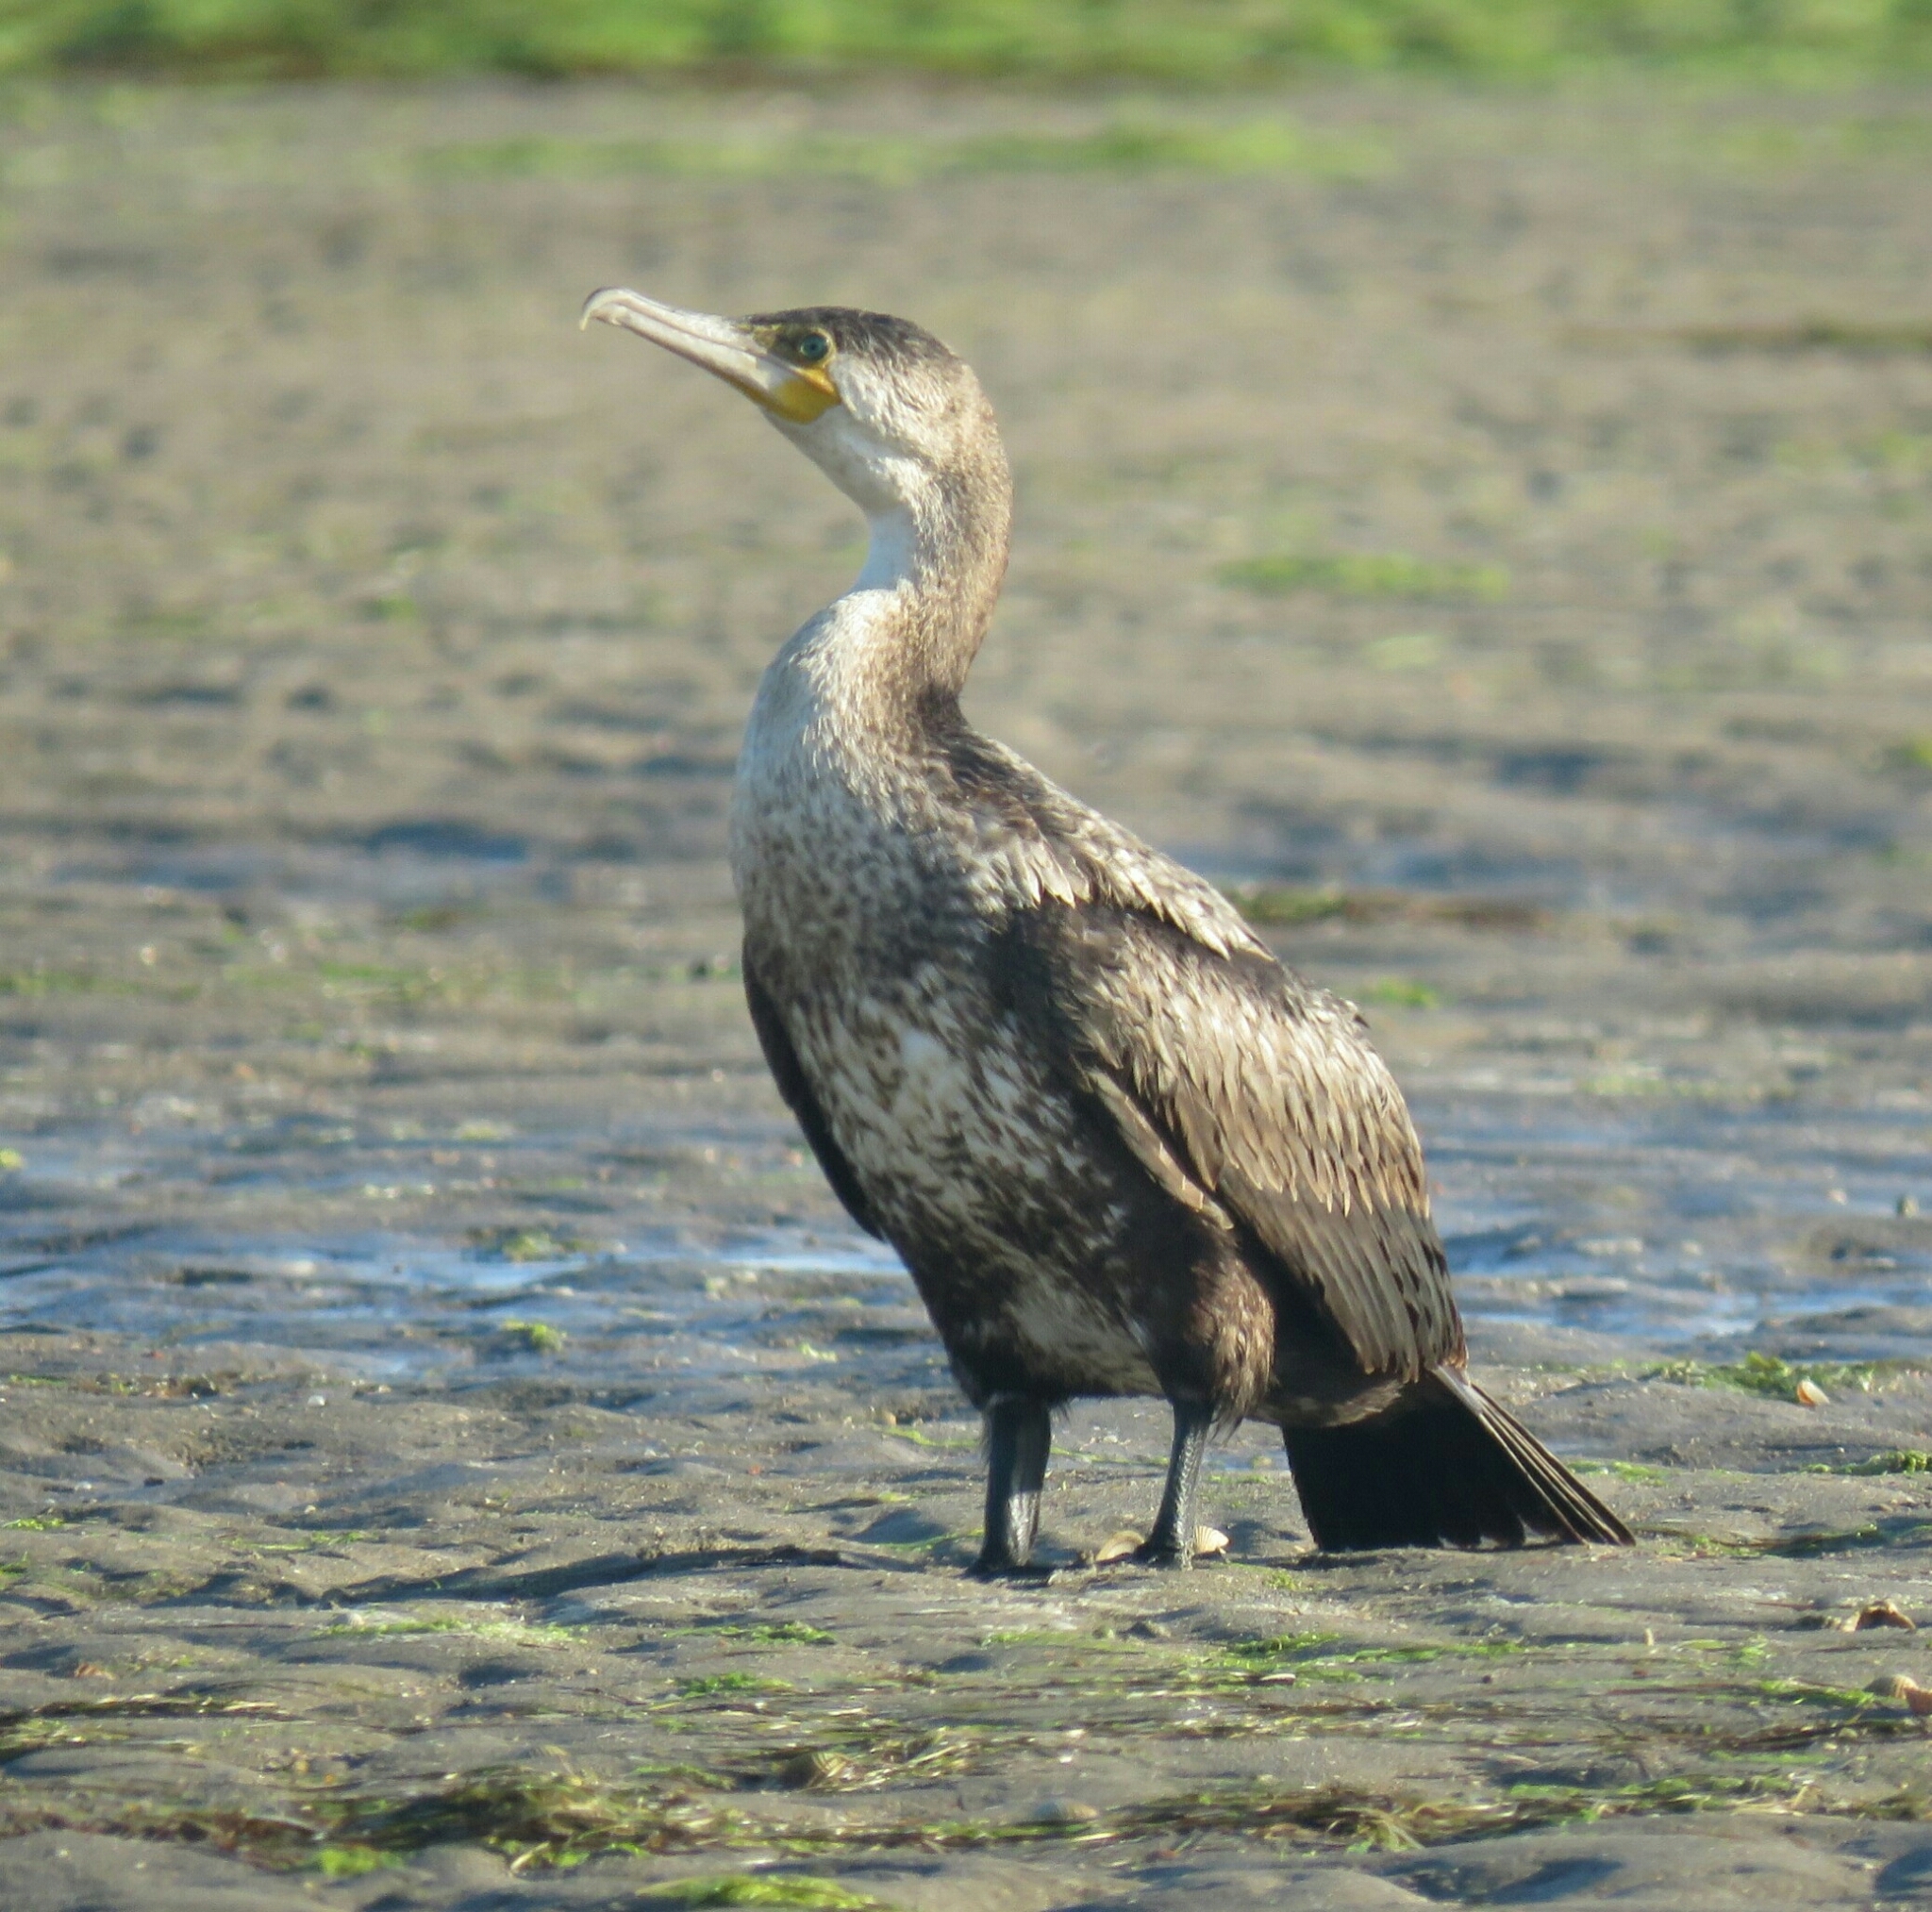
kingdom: Animalia
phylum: Chordata
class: Aves
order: Suliformes
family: Phalacrocoracidae
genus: Phalacrocorax
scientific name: Phalacrocorax carbo
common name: Great cormorant
